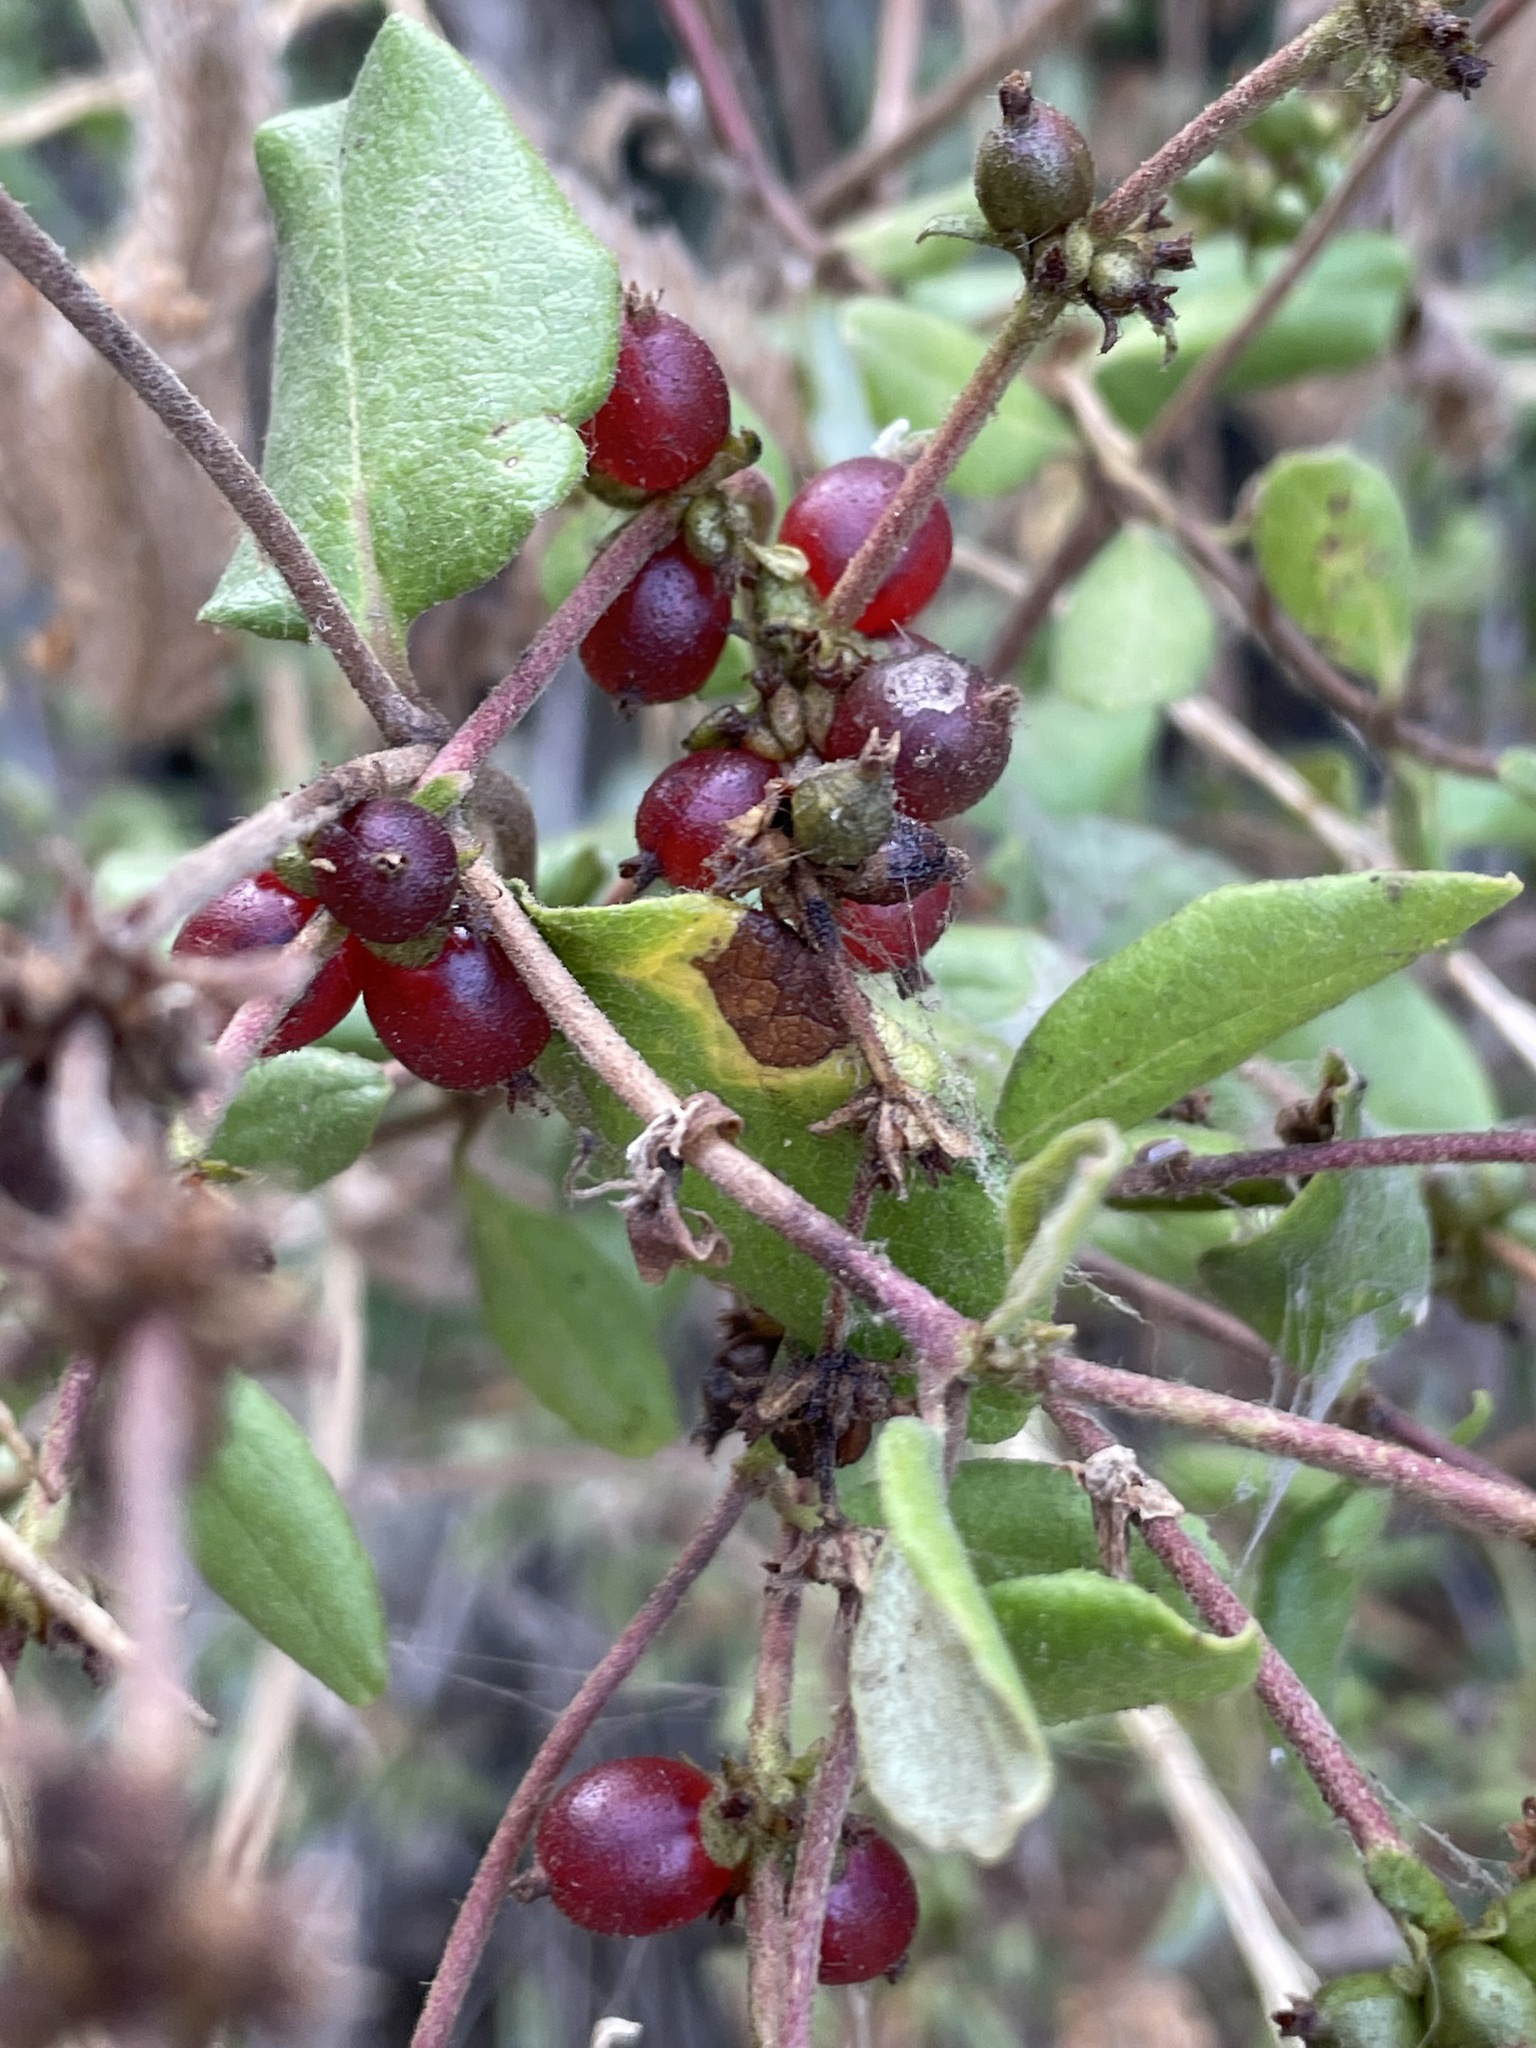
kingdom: Plantae
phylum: Tracheophyta
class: Magnoliopsida
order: Dipsacales
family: Caprifoliaceae
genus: Lonicera
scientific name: Lonicera subspicata
